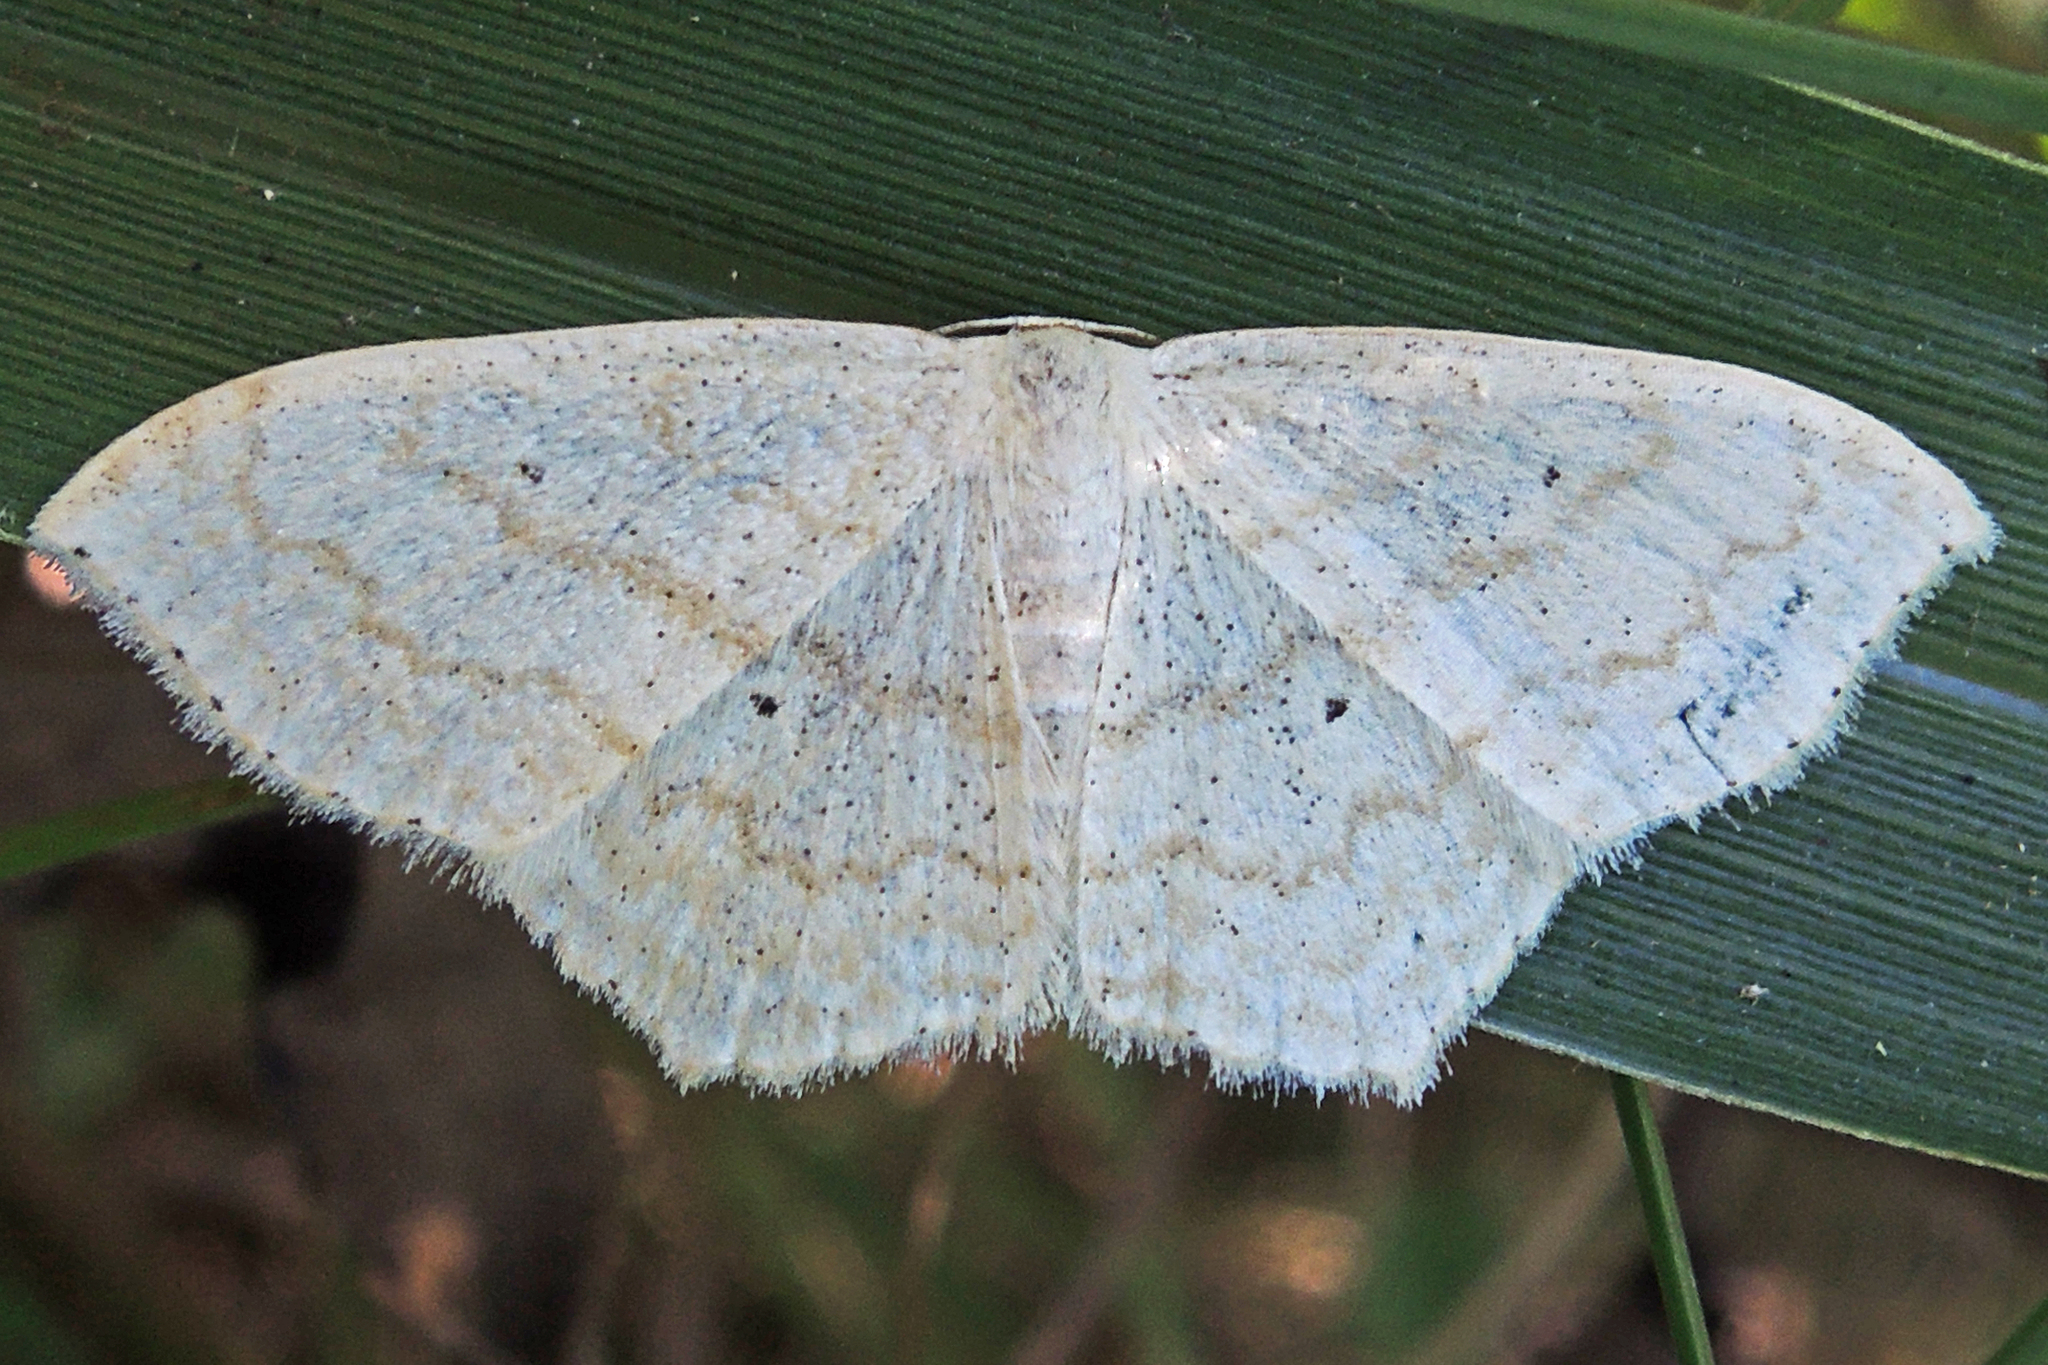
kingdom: Animalia
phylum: Arthropoda
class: Insecta
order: Lepidoptera
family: Geometridae
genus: Scopula
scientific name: Scopula limboundata
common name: Large lace border
